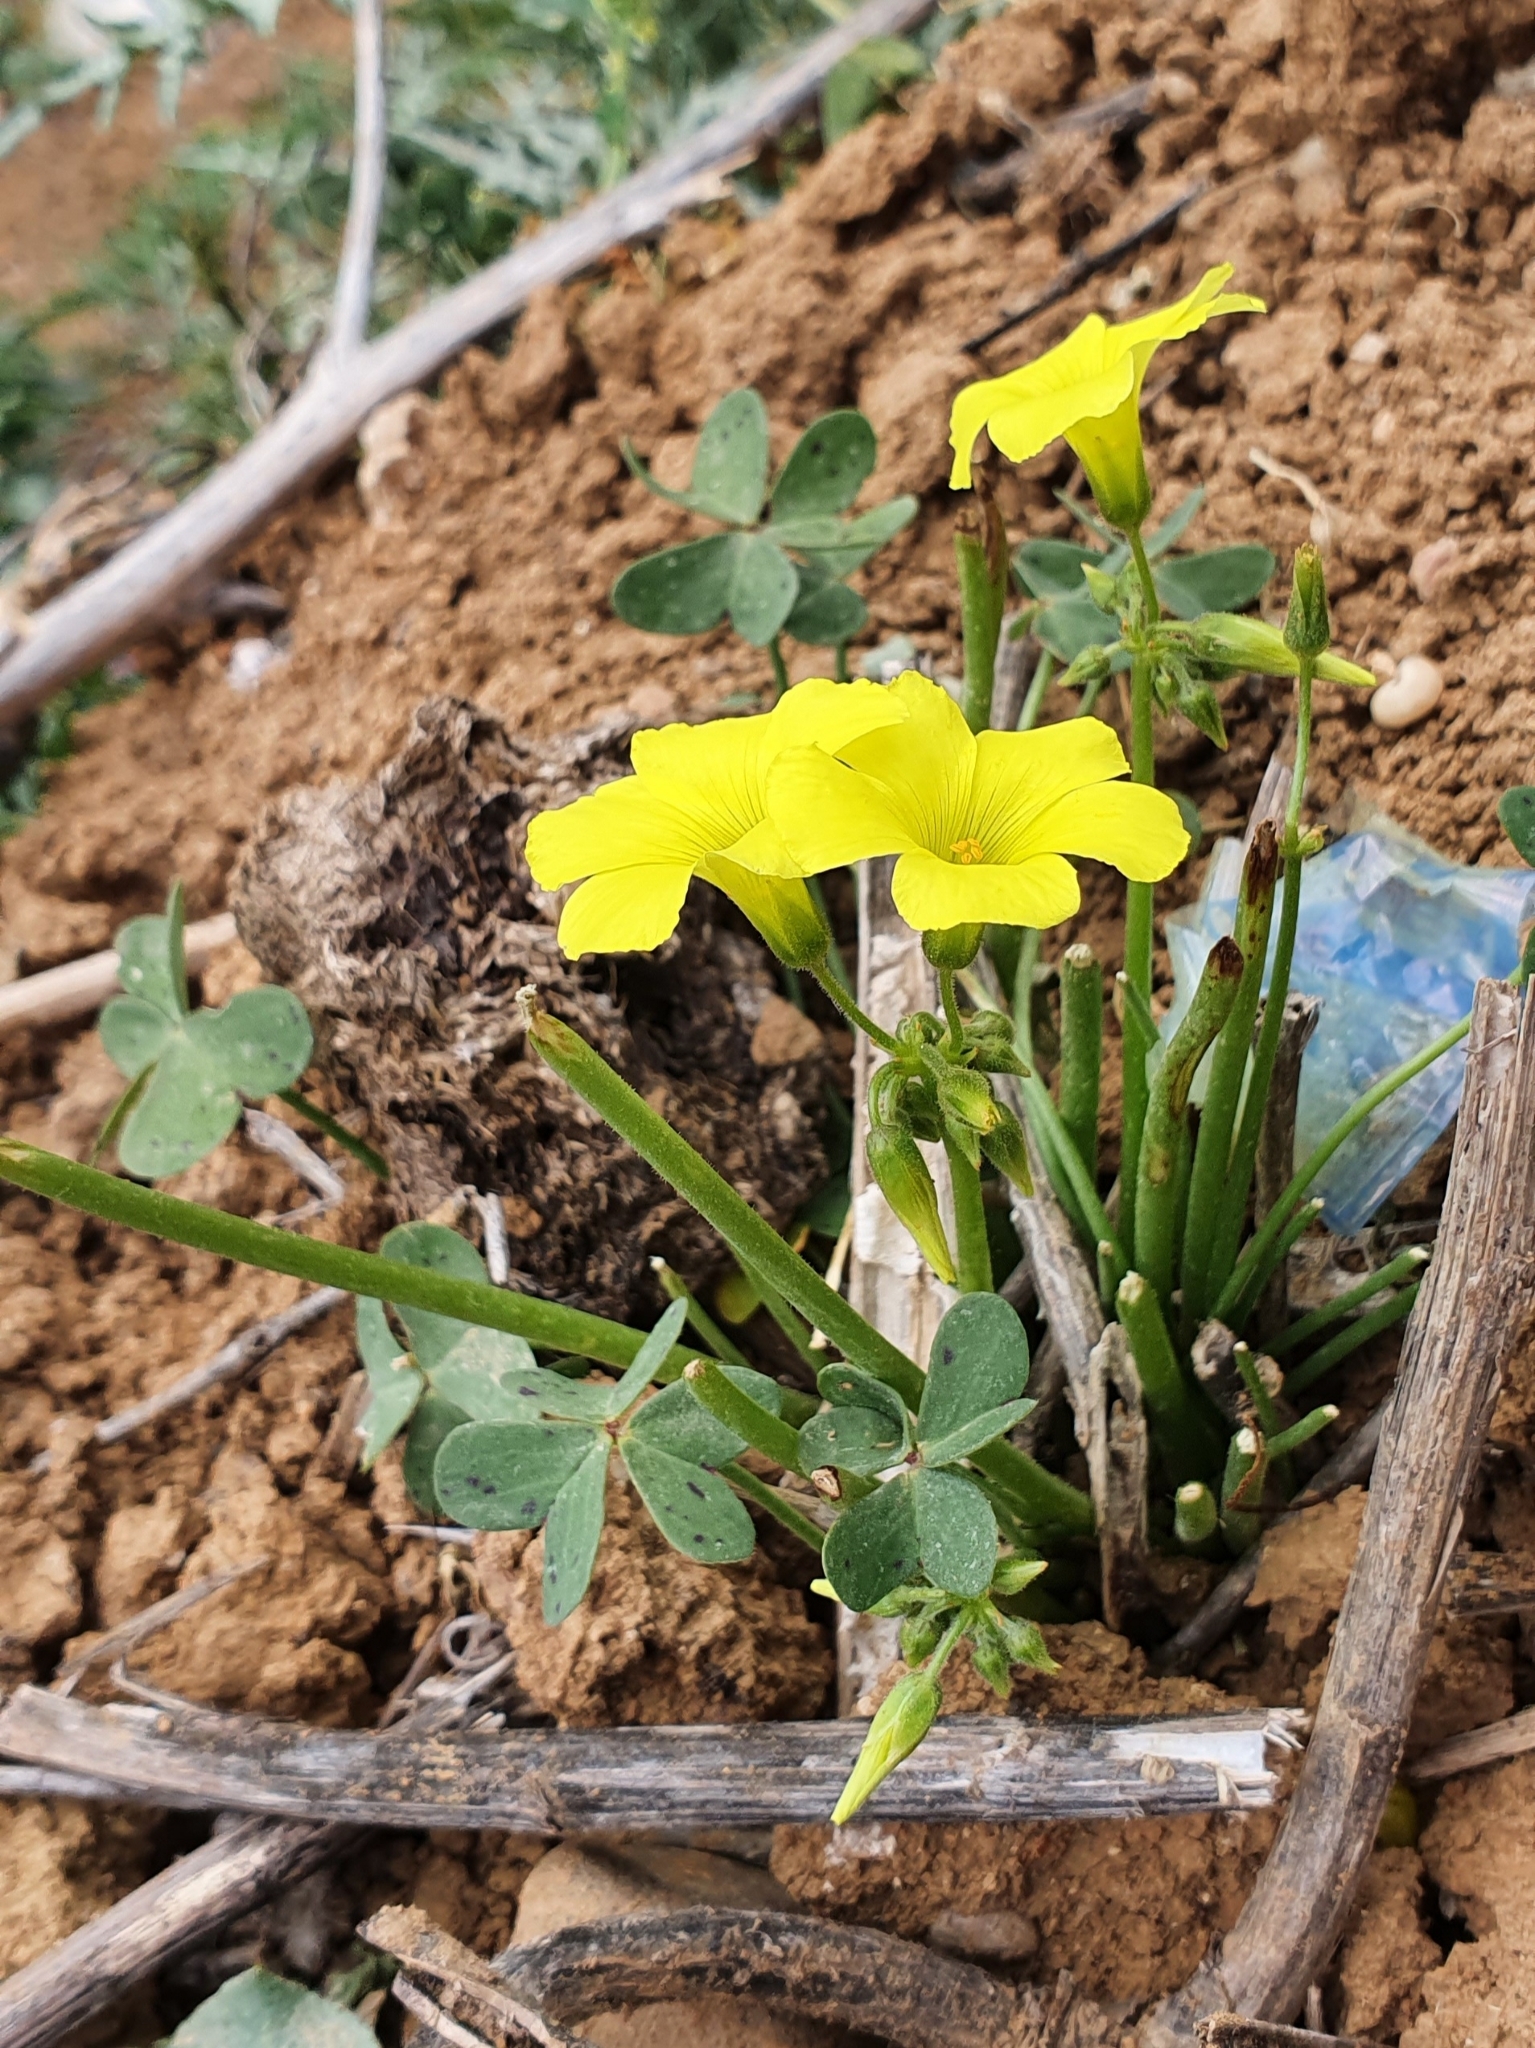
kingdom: Plantae
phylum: Tracheophyta
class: Magnoliopsida
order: Oxalidales
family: Oxalidaceae
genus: Oxalis
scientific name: Oxalis pes-caprae
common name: Bermuda-buttercup
